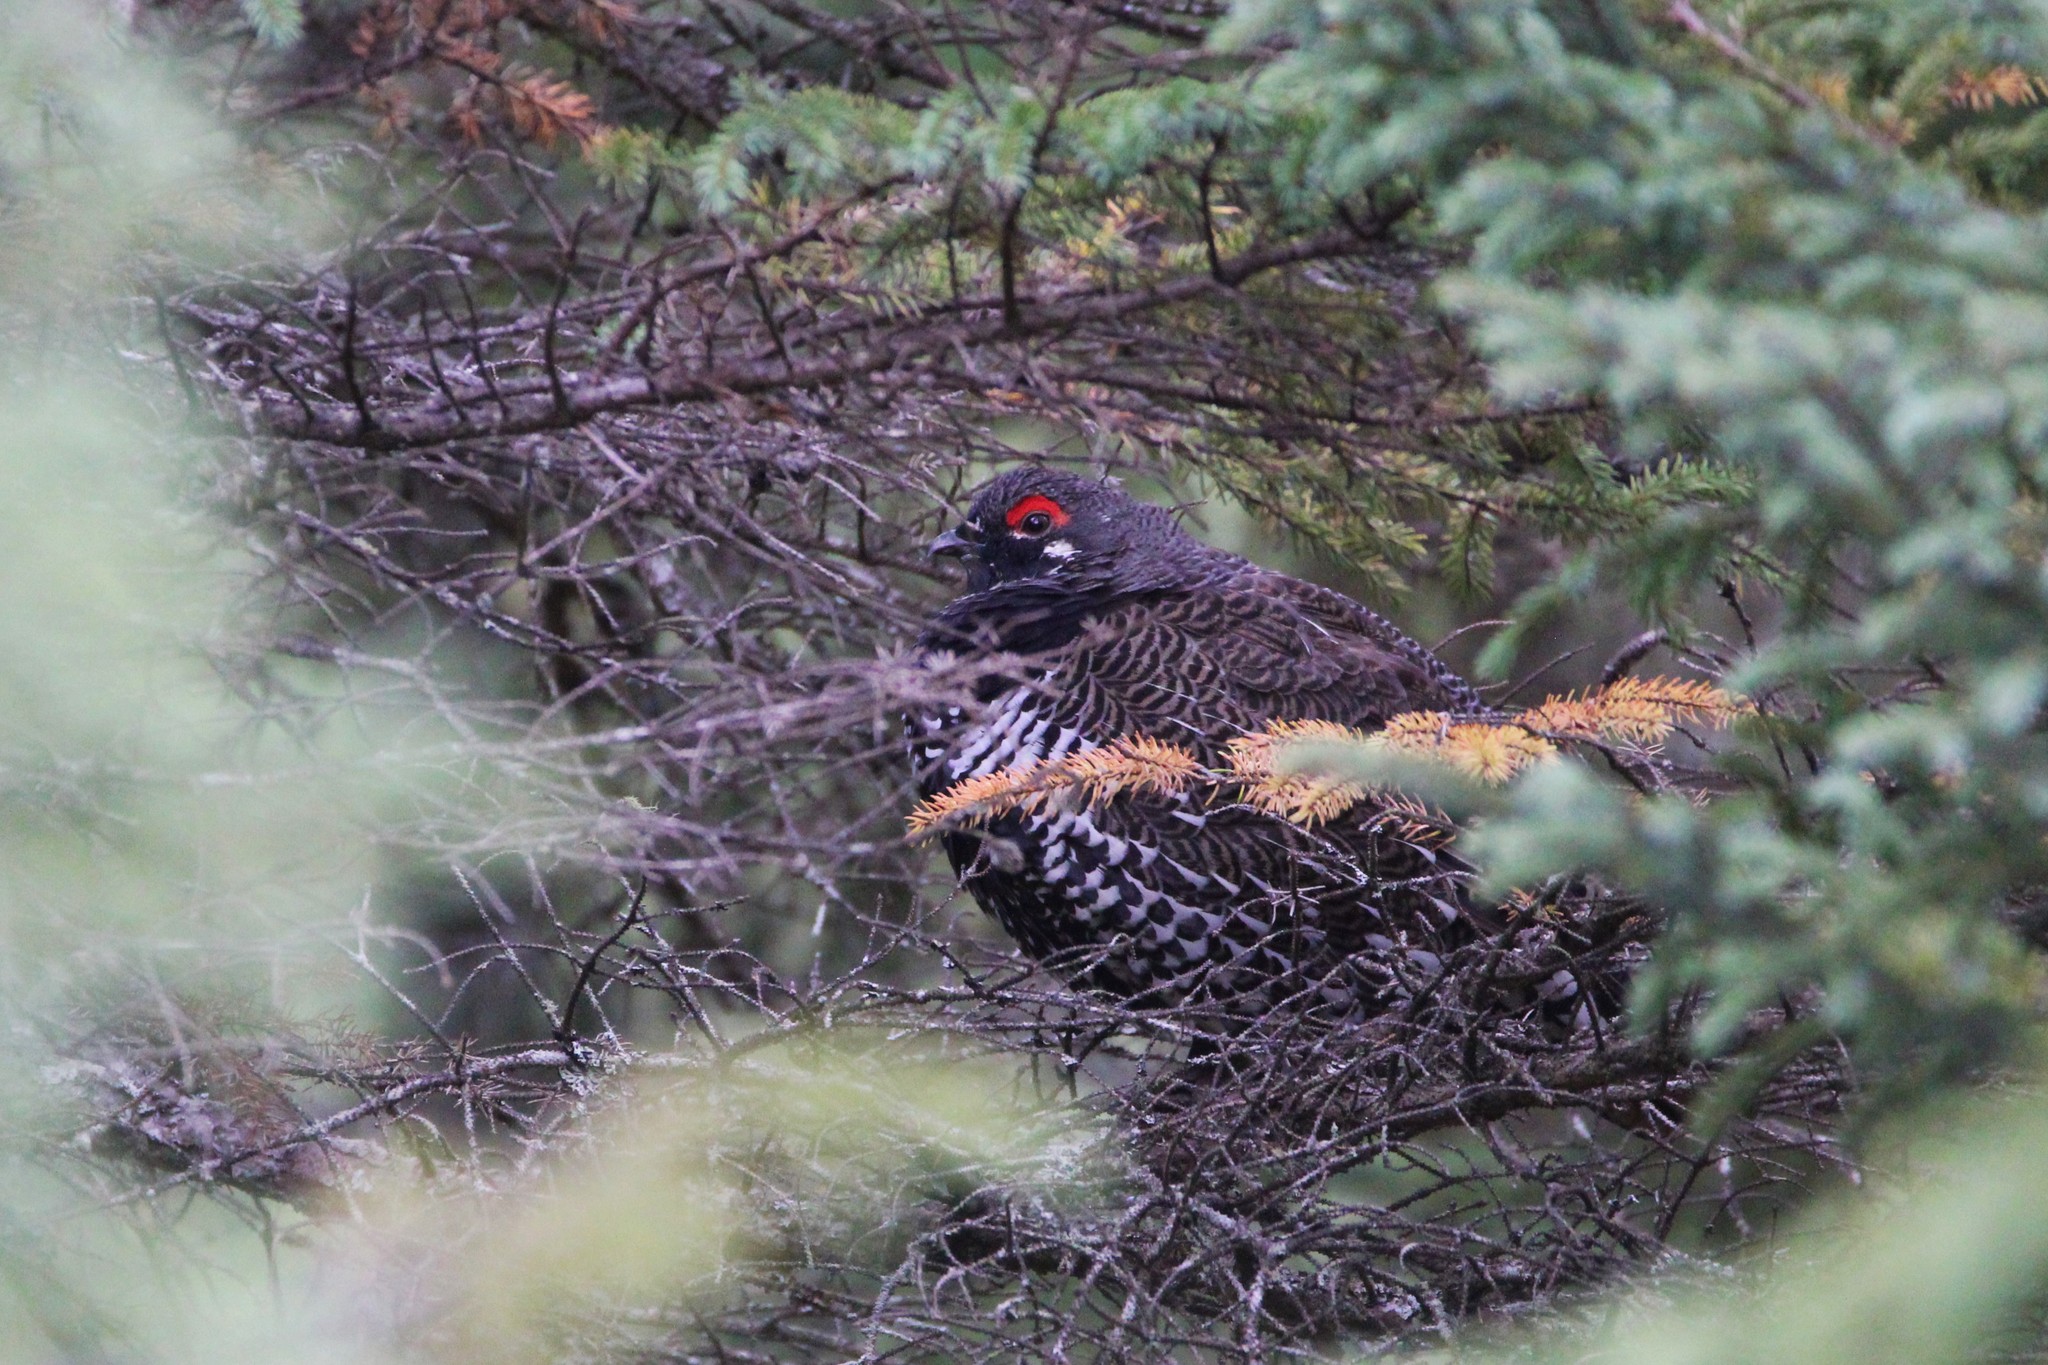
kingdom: Animalia
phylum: Chordata
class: Aves
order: Galliformes
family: Phasianidae
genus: Canachites
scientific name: Canachites canadensis
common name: Spruce grouse
